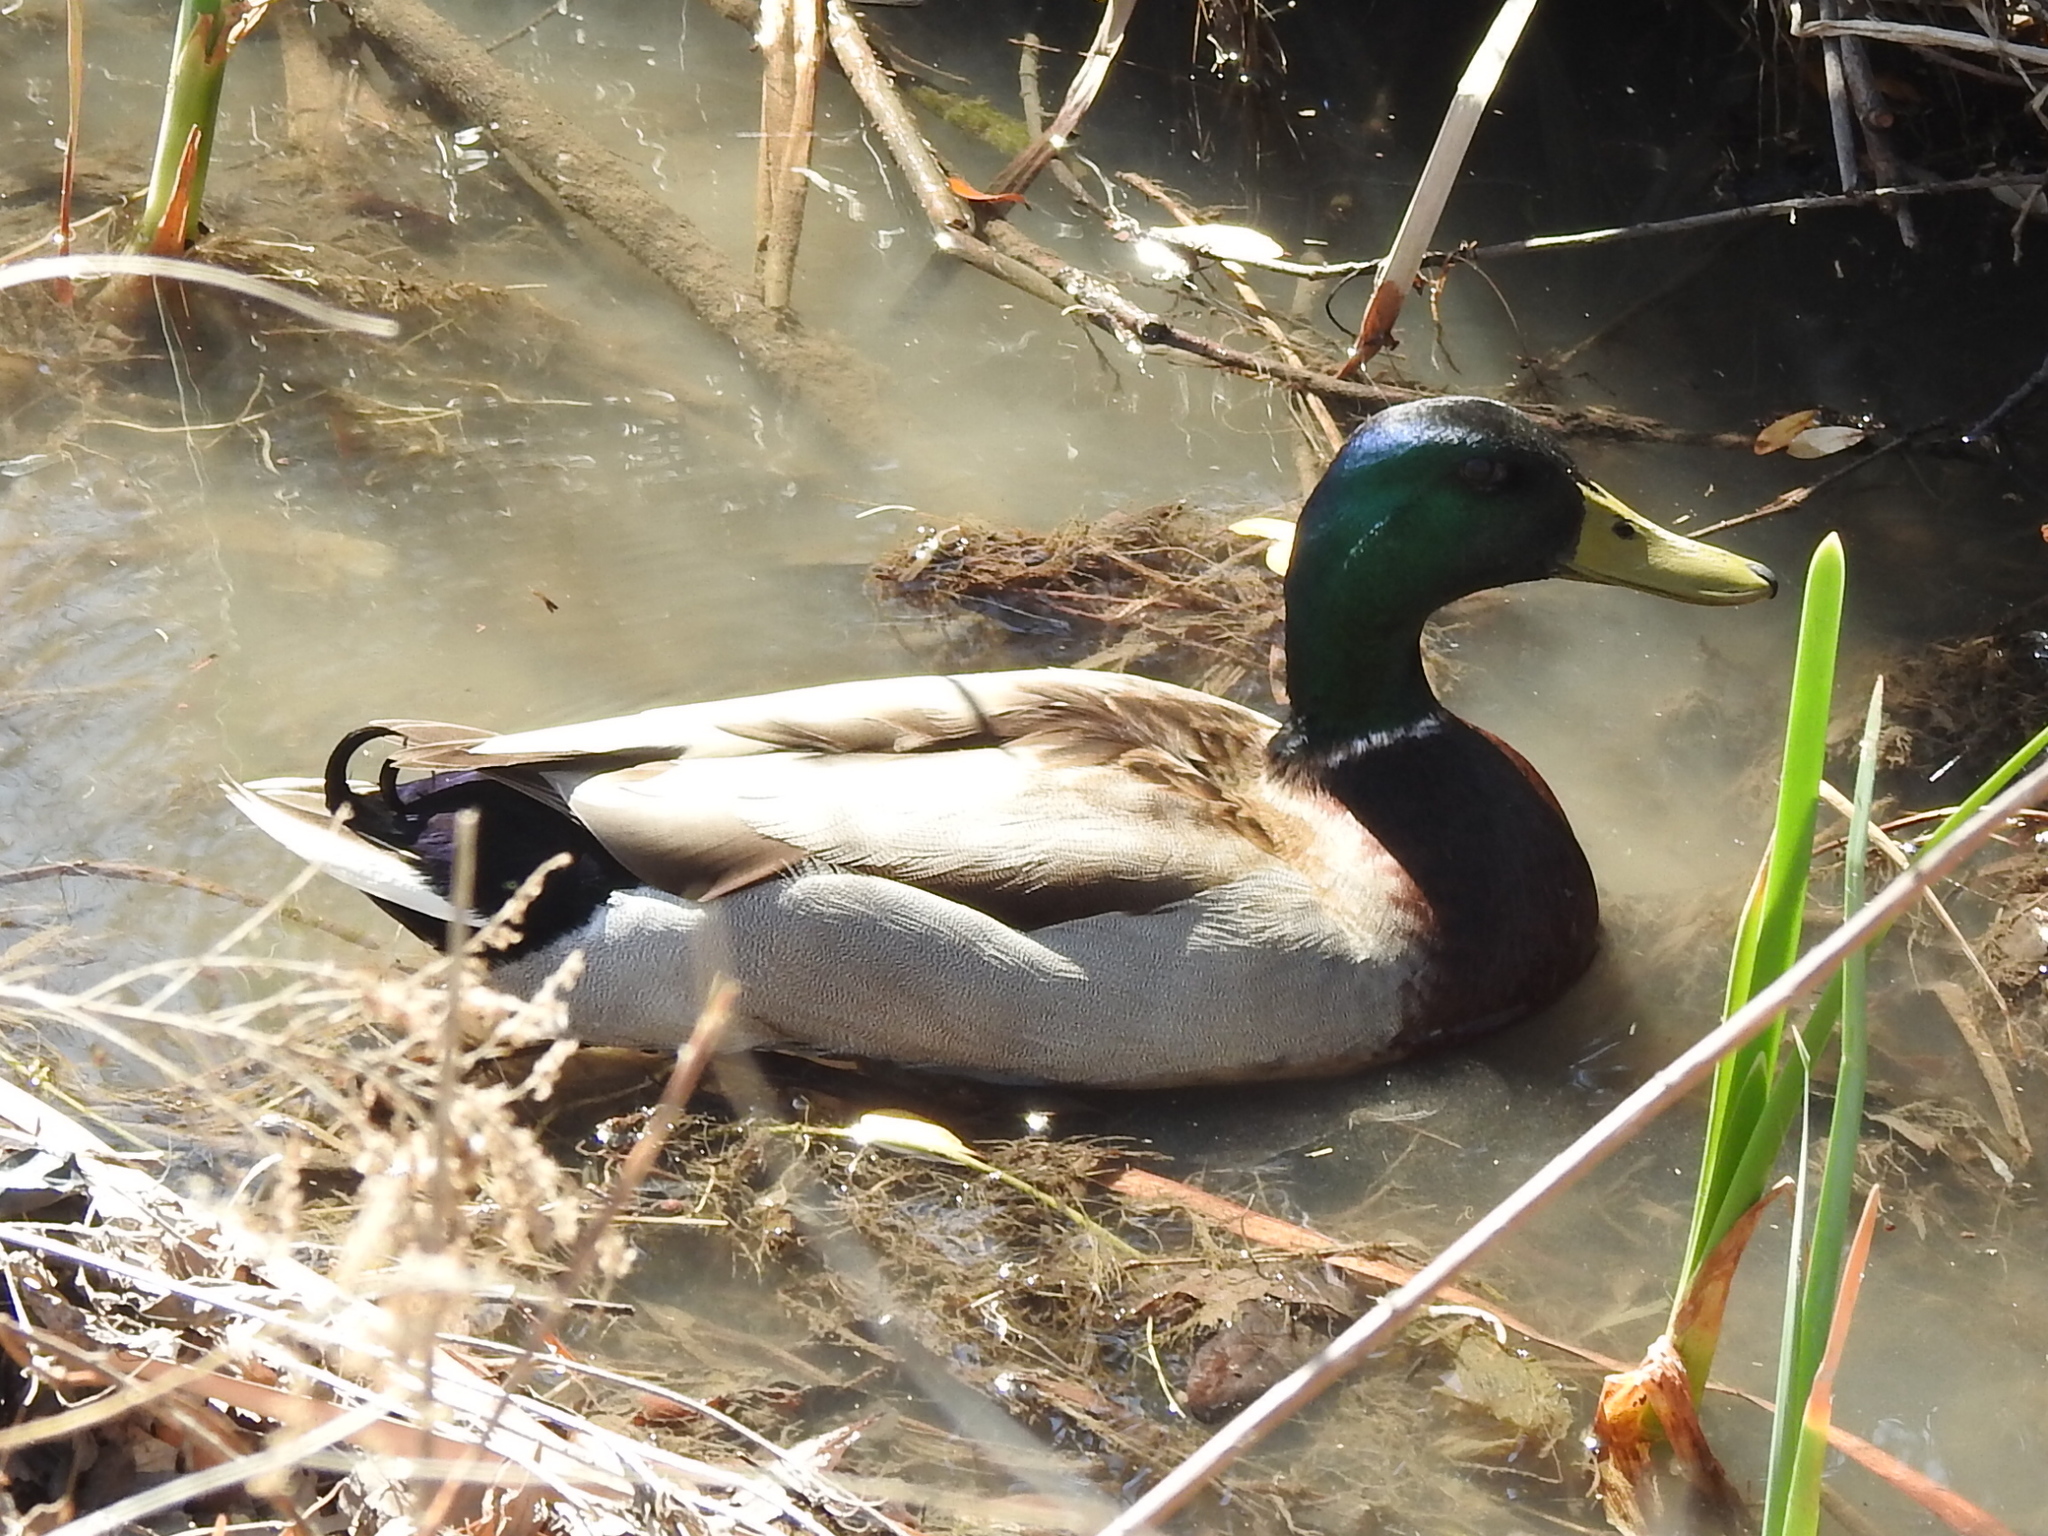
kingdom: Animalia
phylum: Chordata
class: Aves
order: Anseriformes
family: Anatidae
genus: Anas
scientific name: Anas platyrhynchos
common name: Mallard
